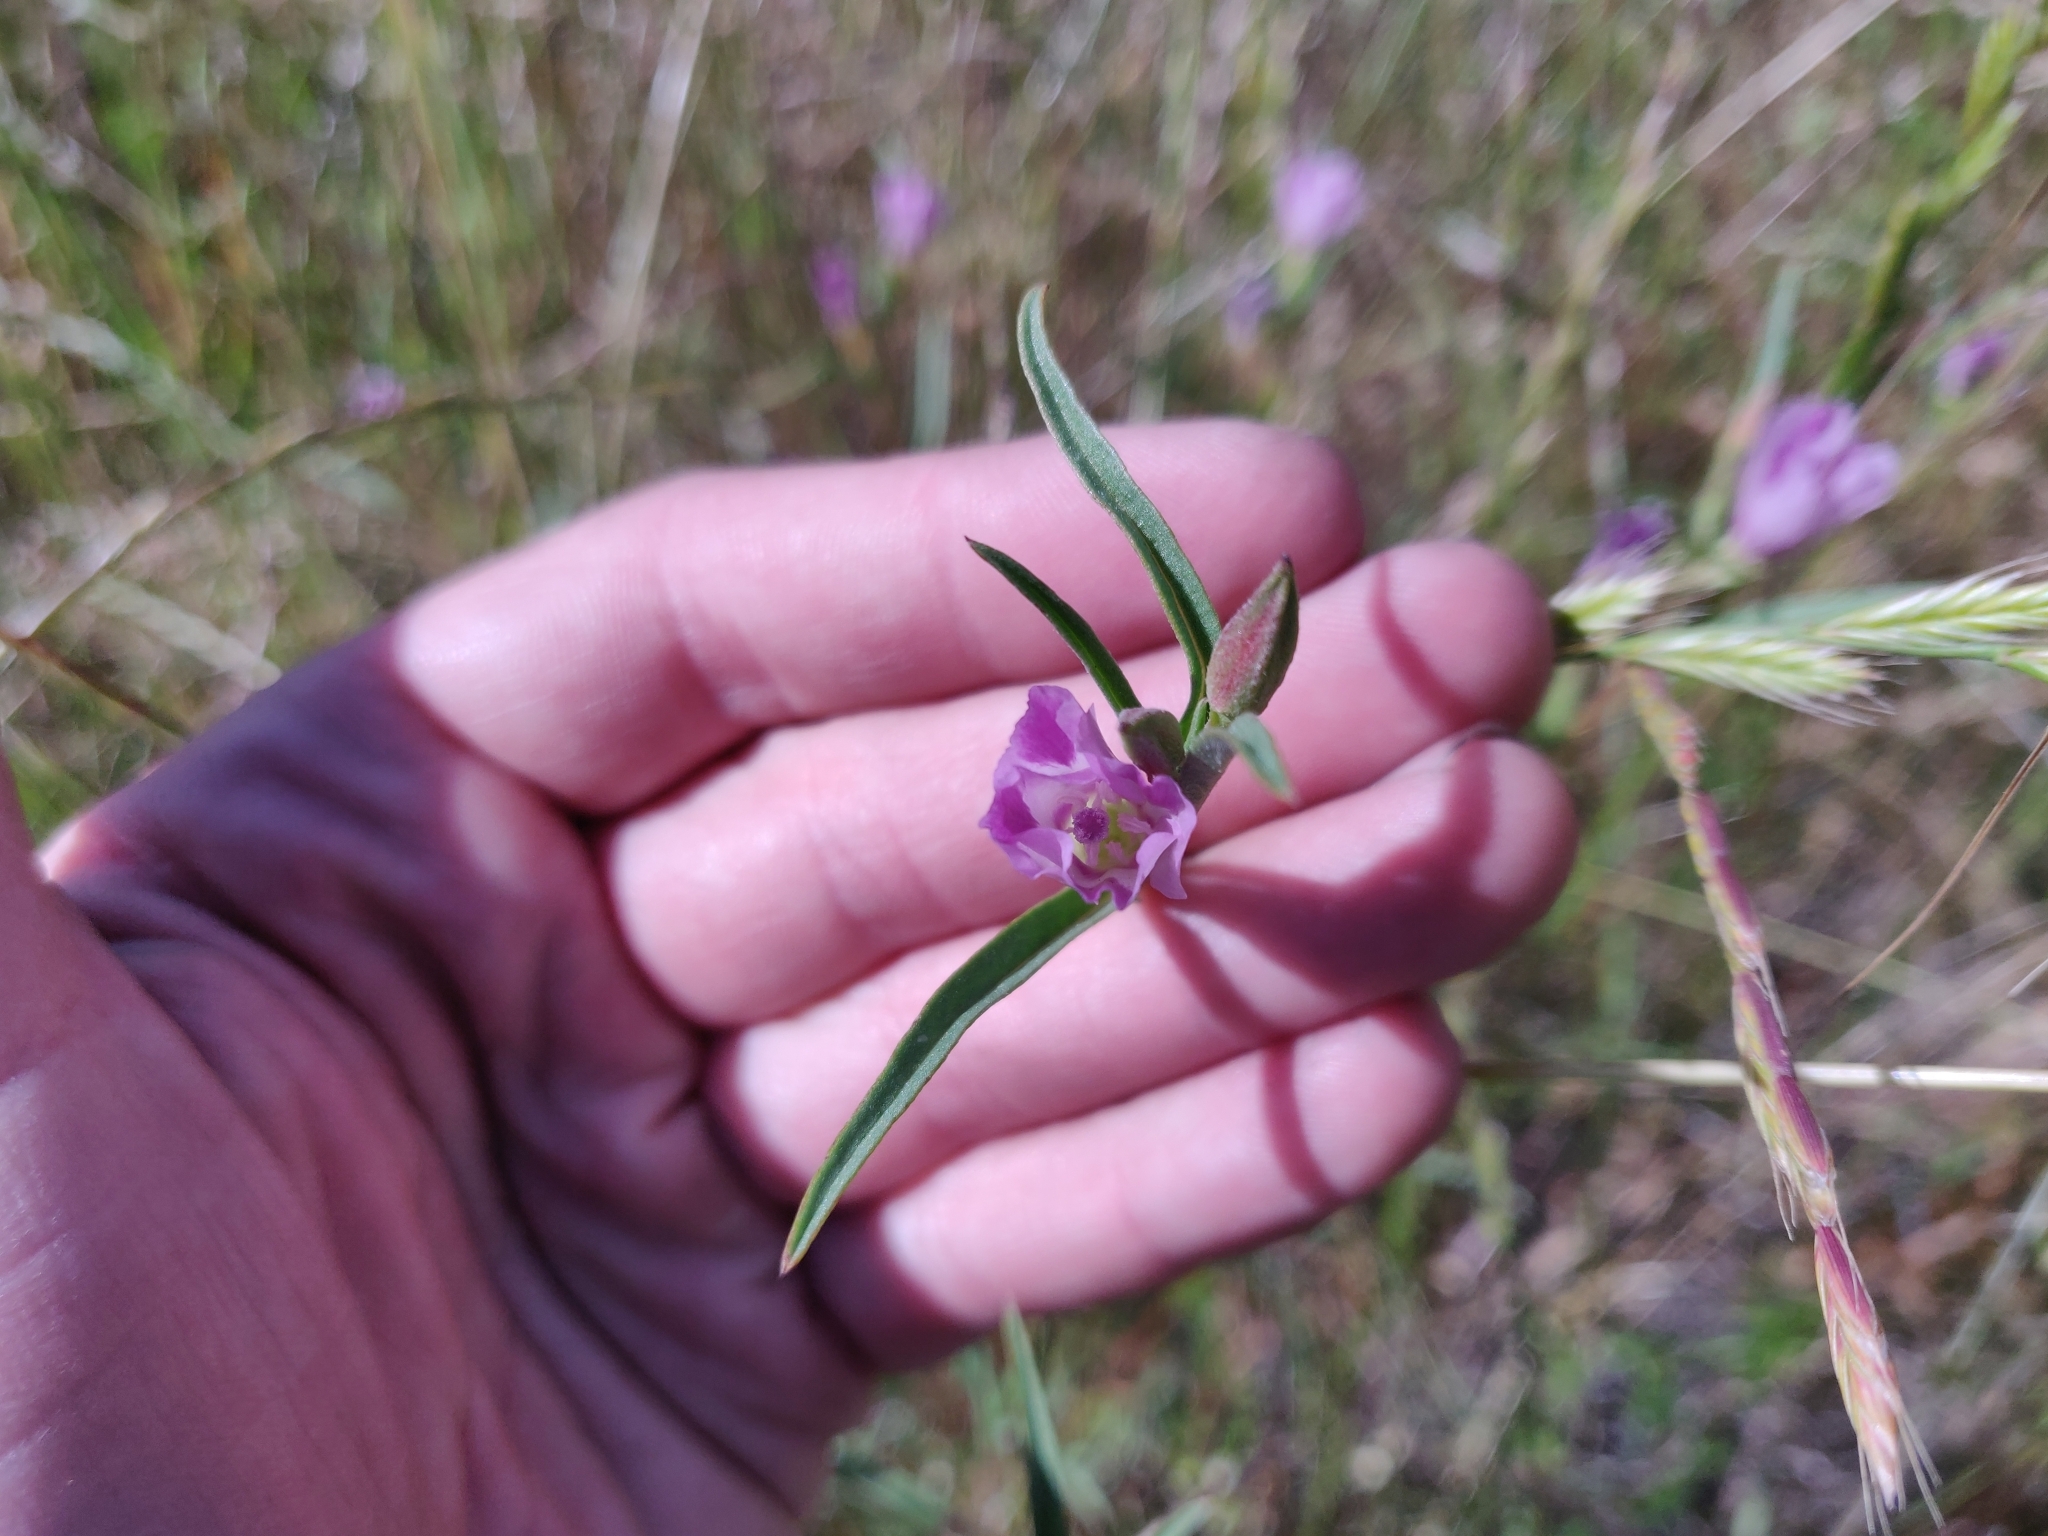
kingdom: Plantae
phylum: Tracheophyta
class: Magnoliopsida
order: Myrtales
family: Onagraceae
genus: Clarkia
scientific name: Clarkia purpurea
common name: Purple clarkia
